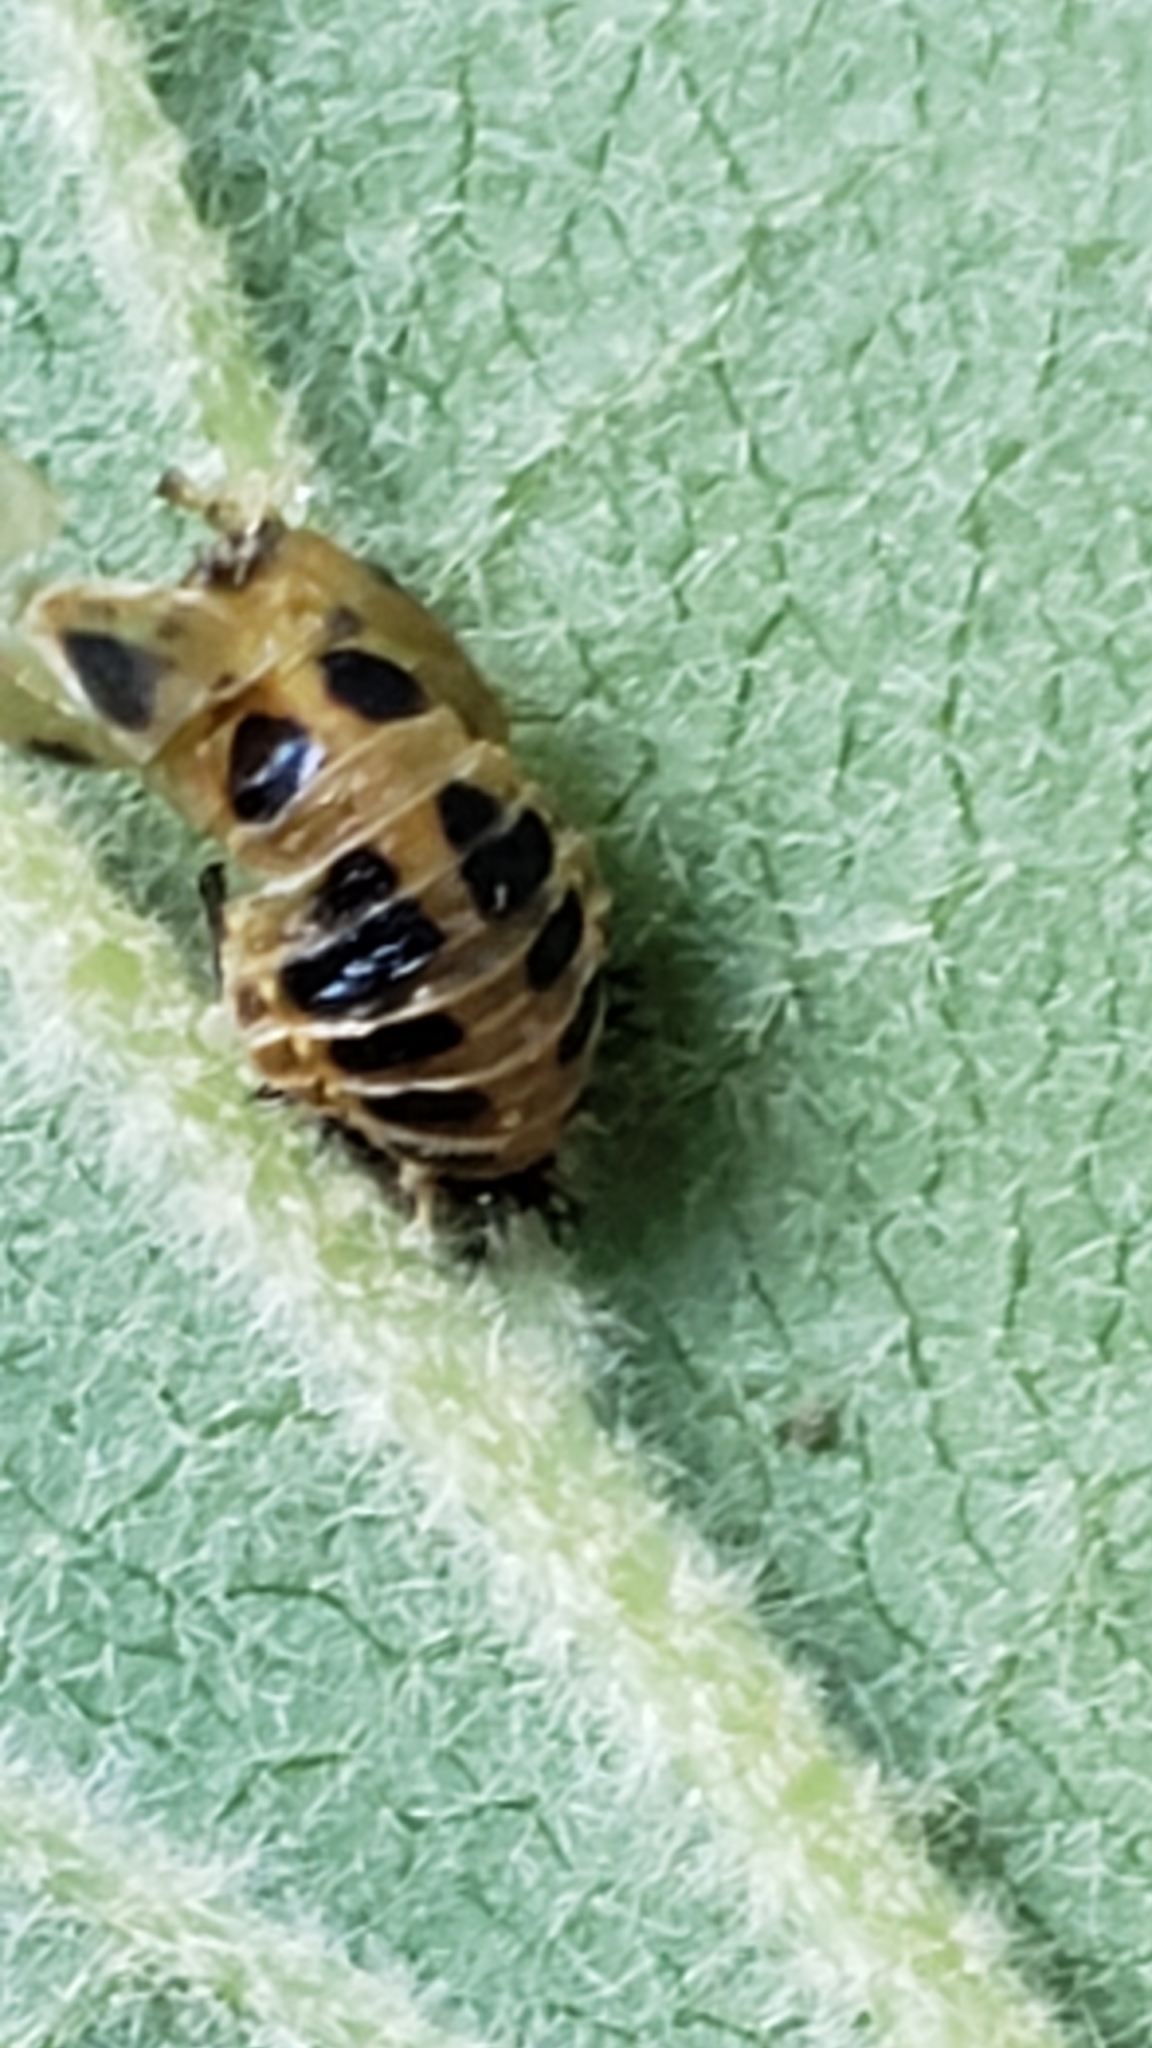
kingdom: Animalia
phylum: Arthropoda
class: Insecta
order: Coleoptera
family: Coccinellidae
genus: Harmonia
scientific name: Harmonia axyridis
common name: Harlequin ladybird
